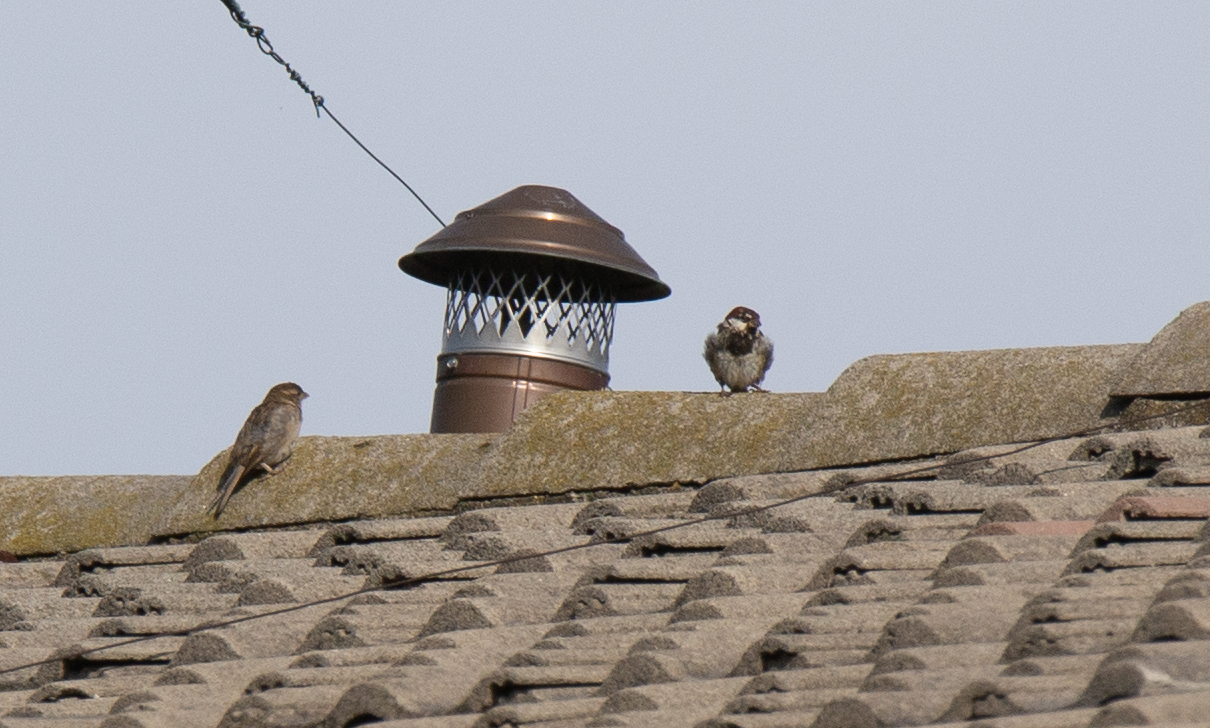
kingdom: Animalia
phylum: Chordata
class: Aves
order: Passeriformes
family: Passeridae
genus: Passer
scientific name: Passer italiae
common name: Italian sparrow
